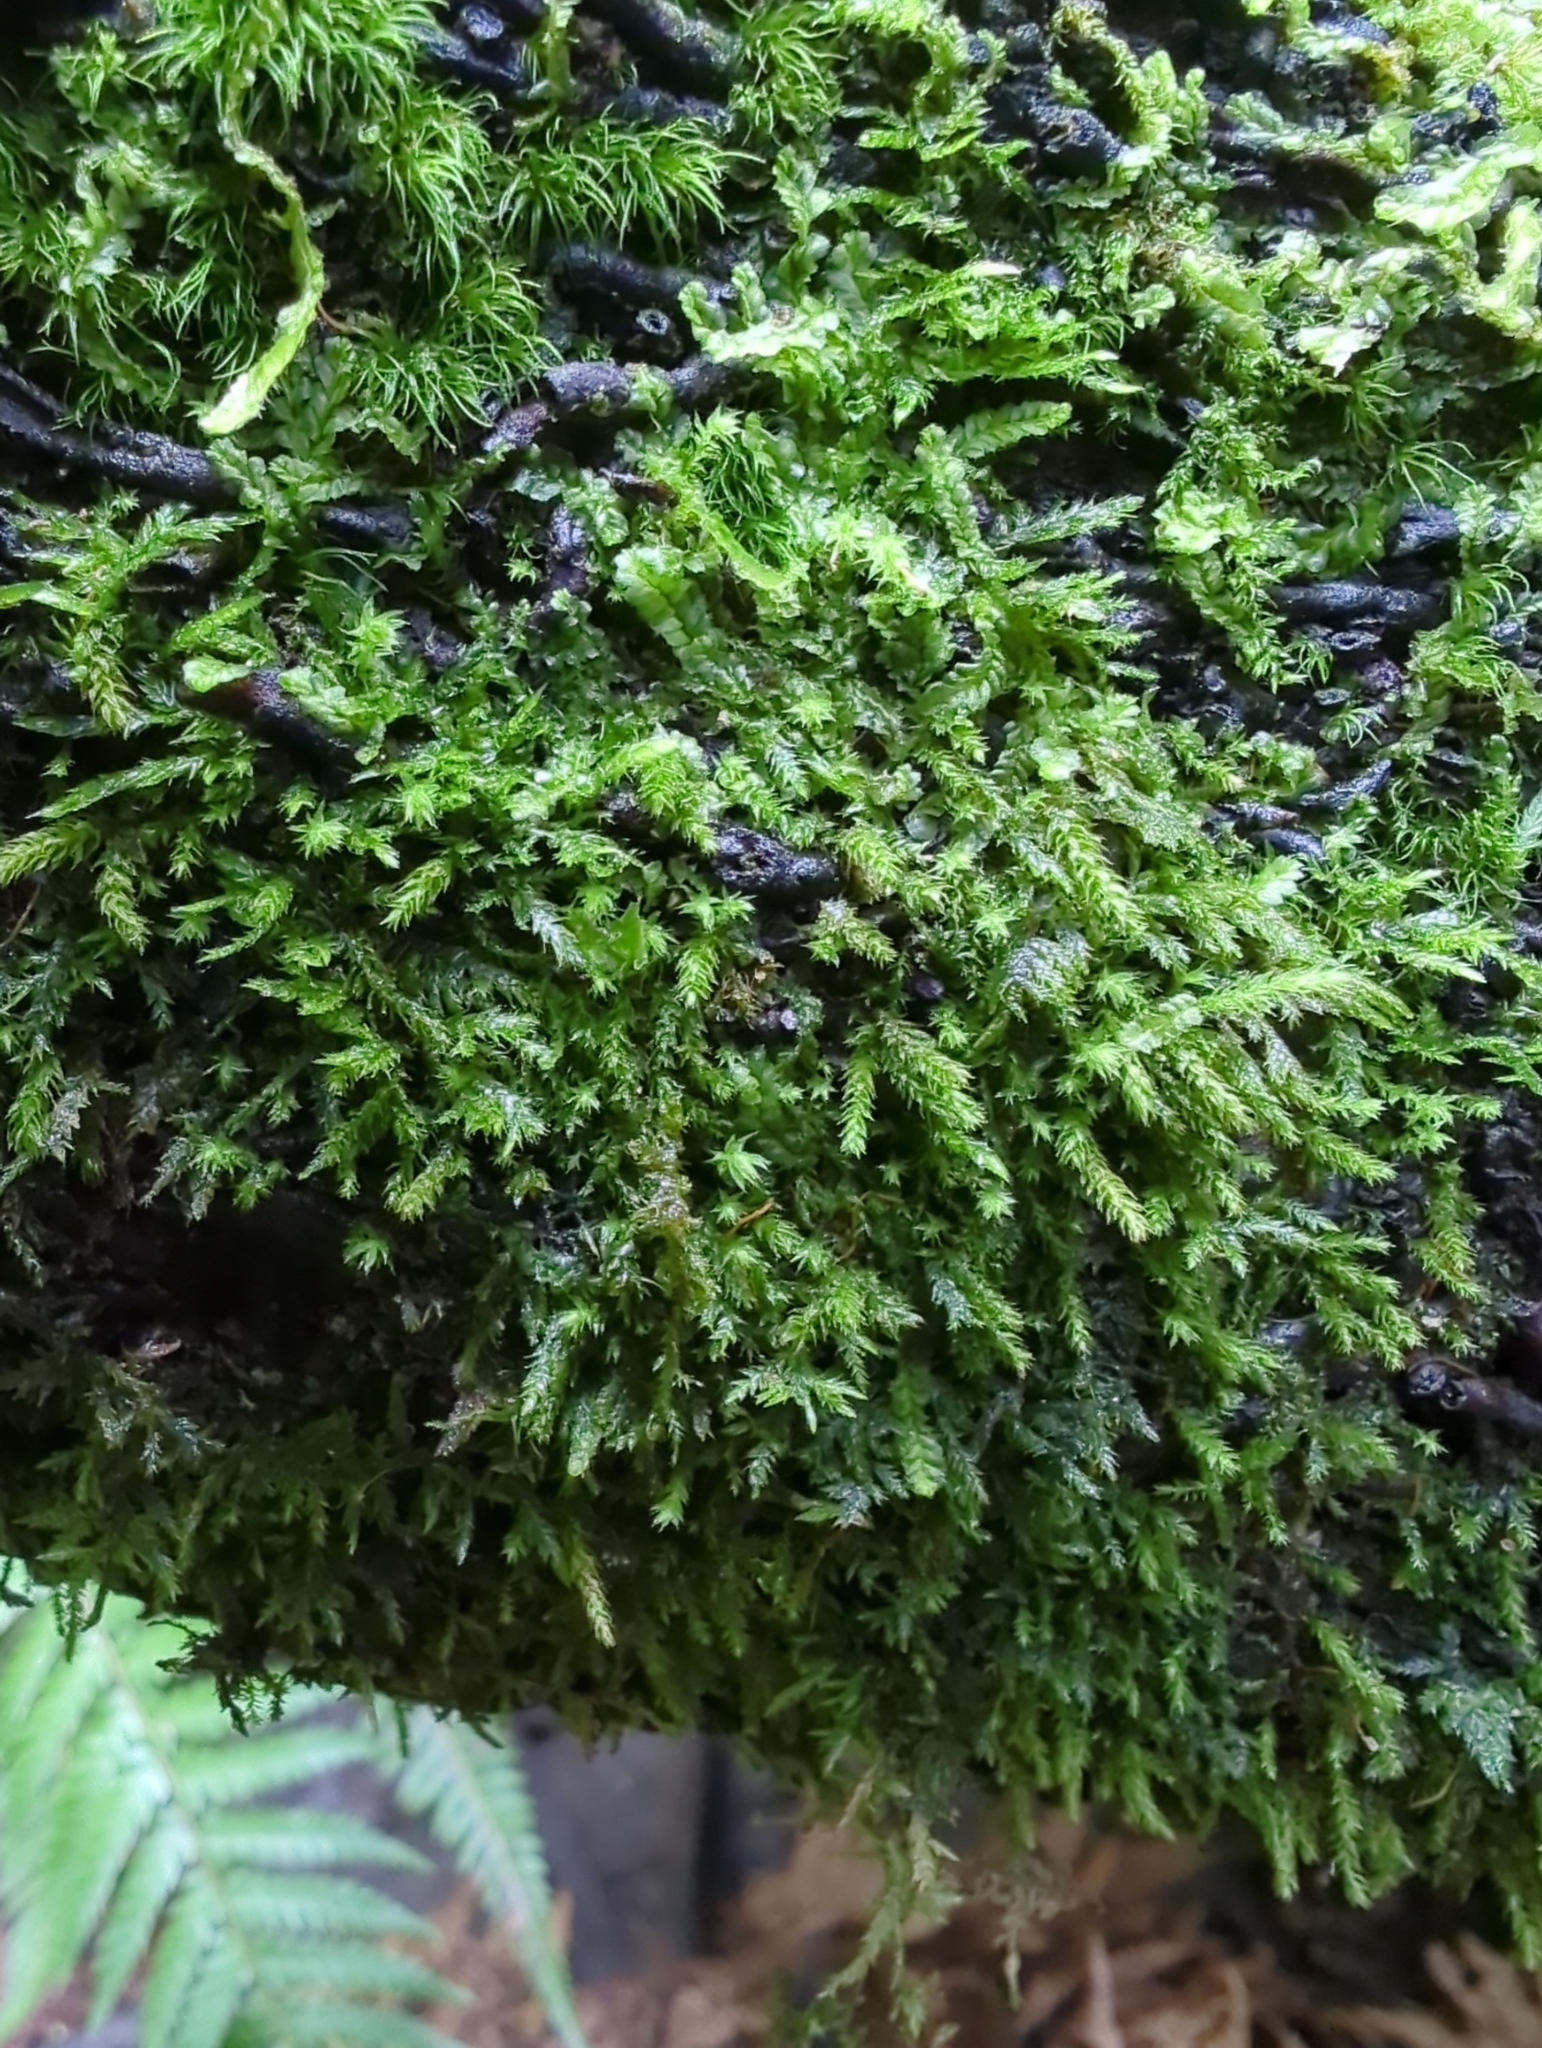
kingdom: Plantae
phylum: Bryophyta
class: Bryopsida
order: Orthodontiales
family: Orthodontiaceae
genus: Leptotheca
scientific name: Leptotheca gaudichaudii
